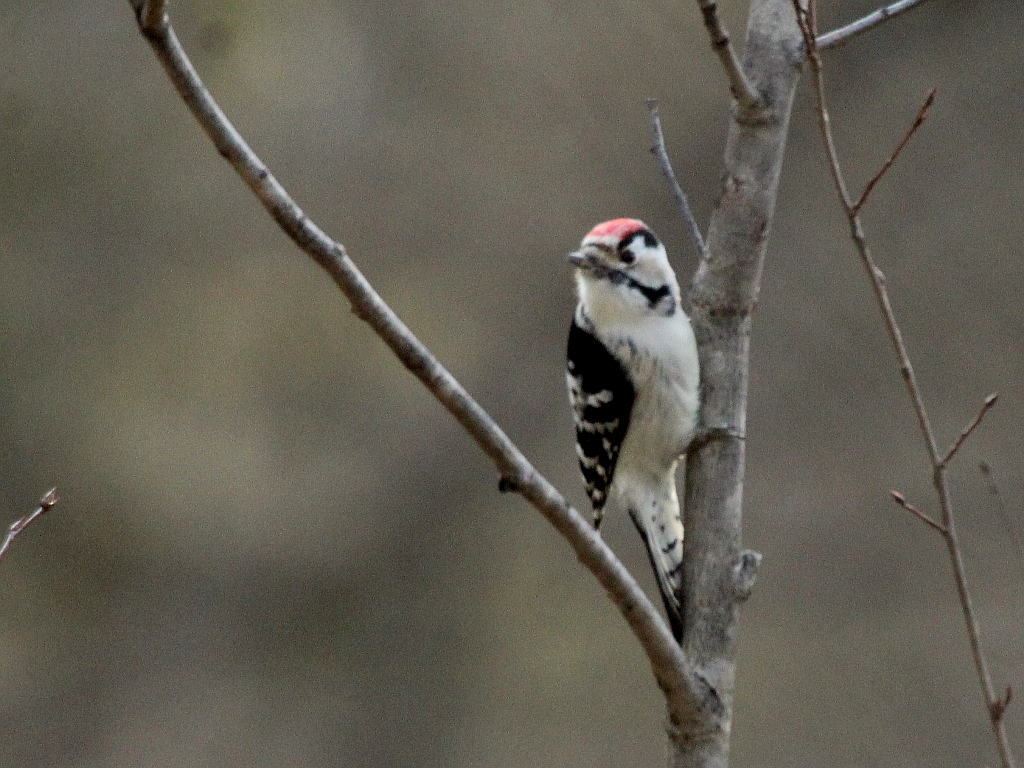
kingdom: Animalia
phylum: Chordata
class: Aves
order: Piciformes
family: Picidae
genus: Dryobates
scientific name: Dryobates minor
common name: Lesser spotted woodpecker
